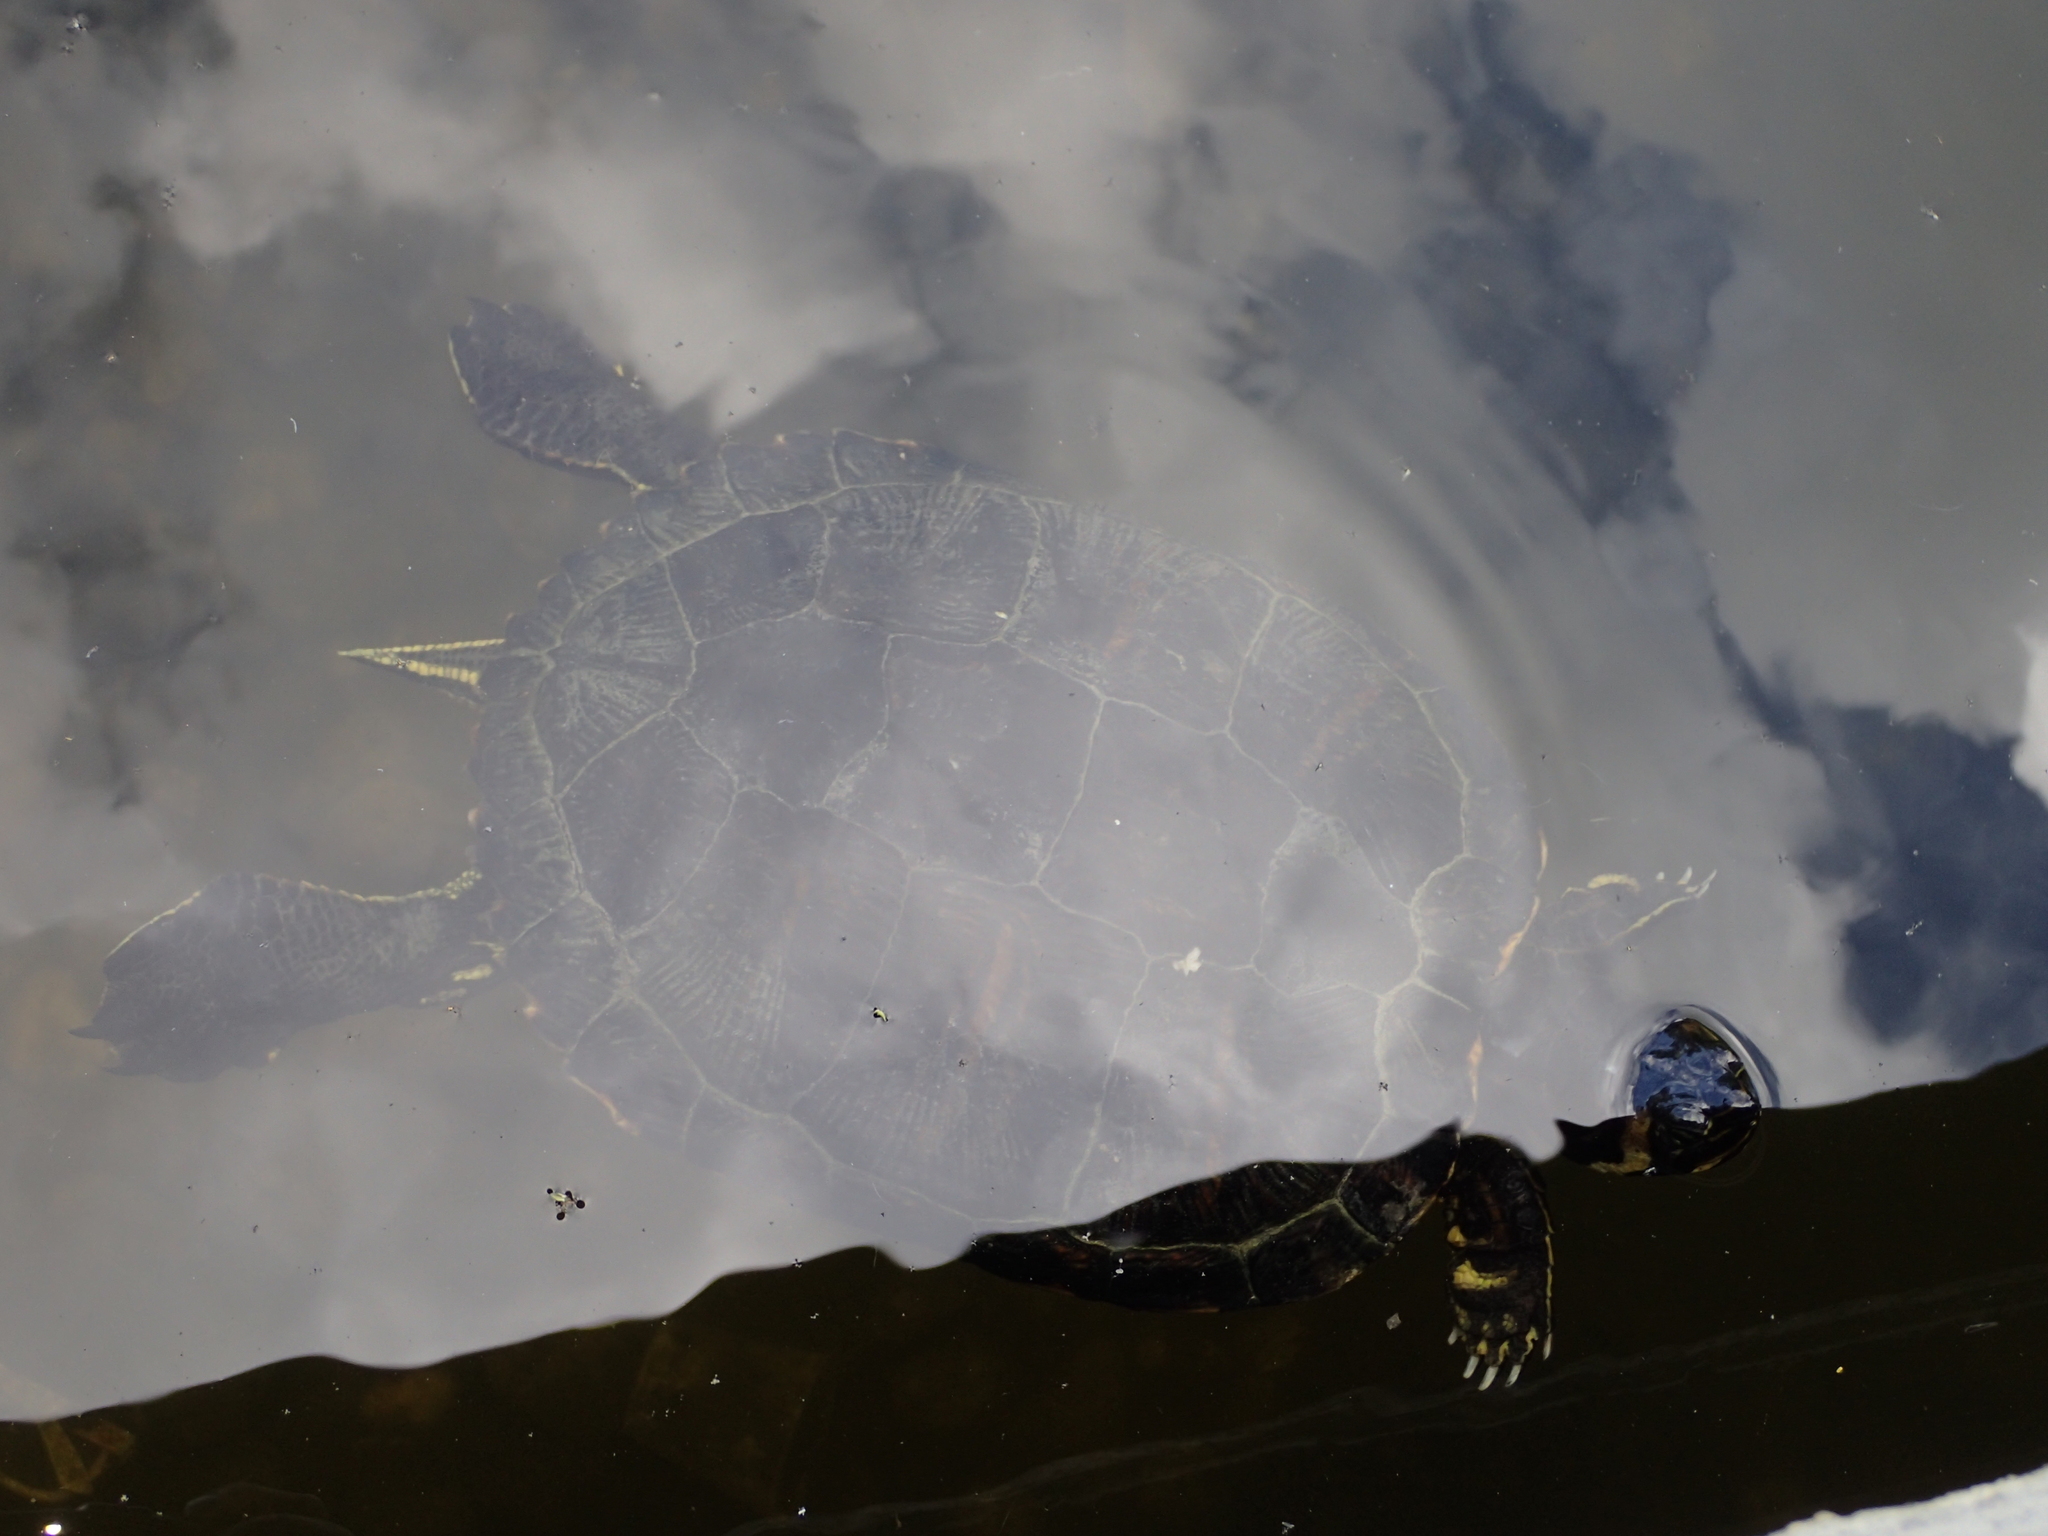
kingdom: Animalia
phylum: Chordata
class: Testudines
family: Emydidae
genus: Trachemys
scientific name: Trachemys scripta
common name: Slider
